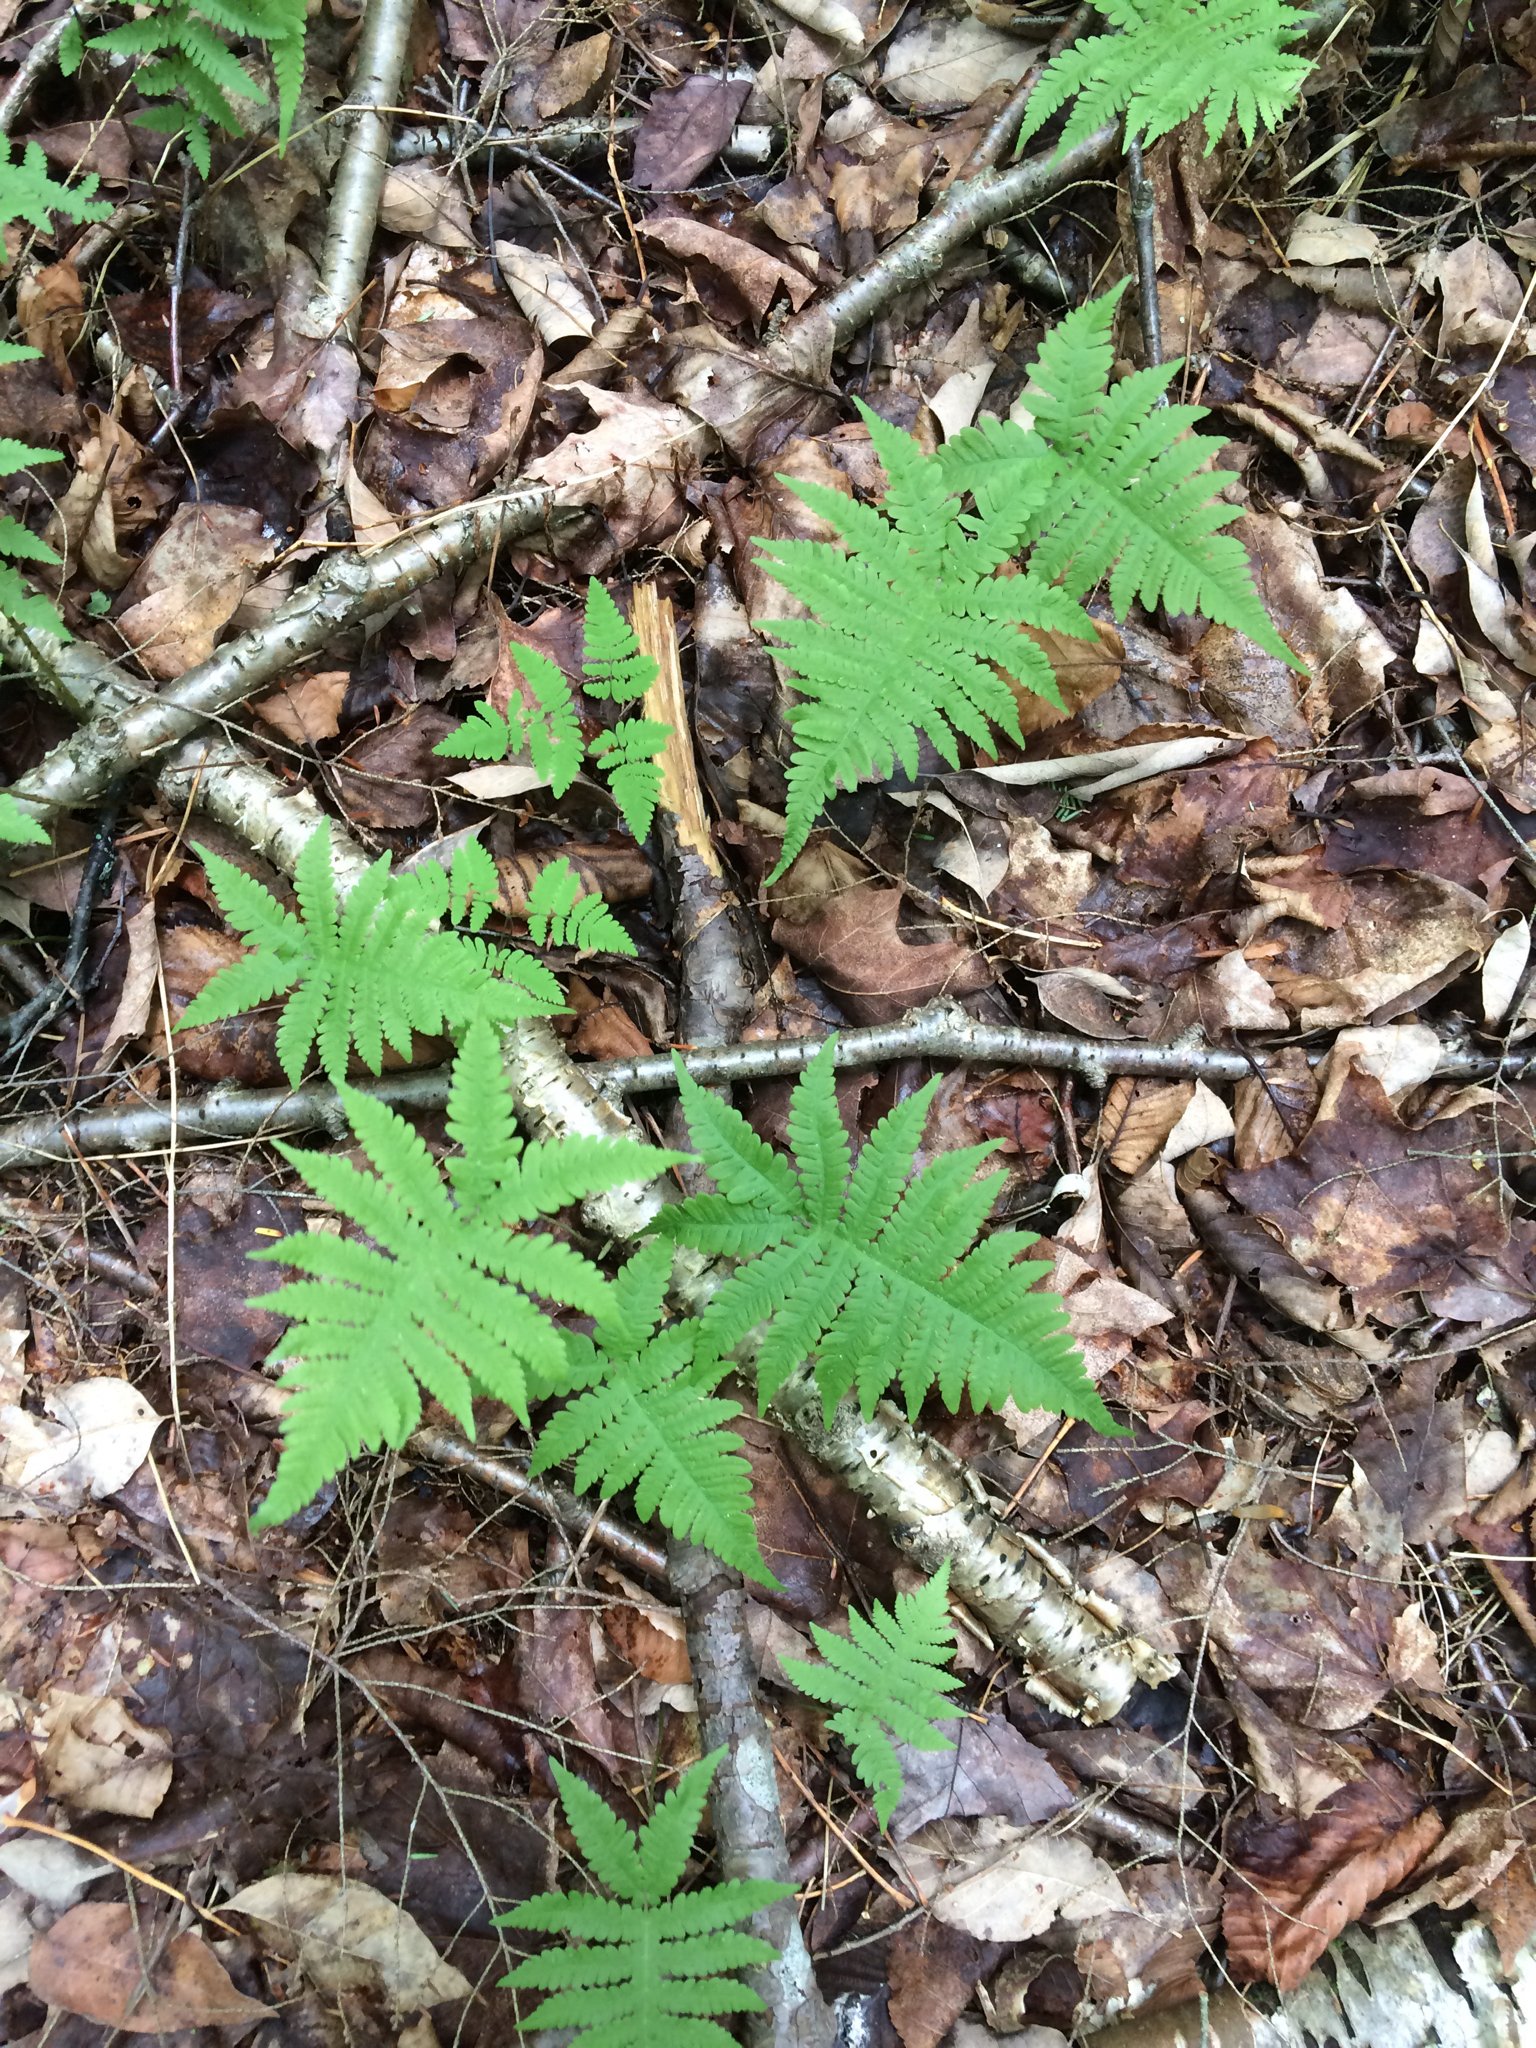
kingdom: Plantae
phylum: Tracheophyta
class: Polypodiopsida
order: Polypodiales
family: Thelypteridaceae
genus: Phegopteris
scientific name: Phegopteris connectilis
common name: Beech fern
